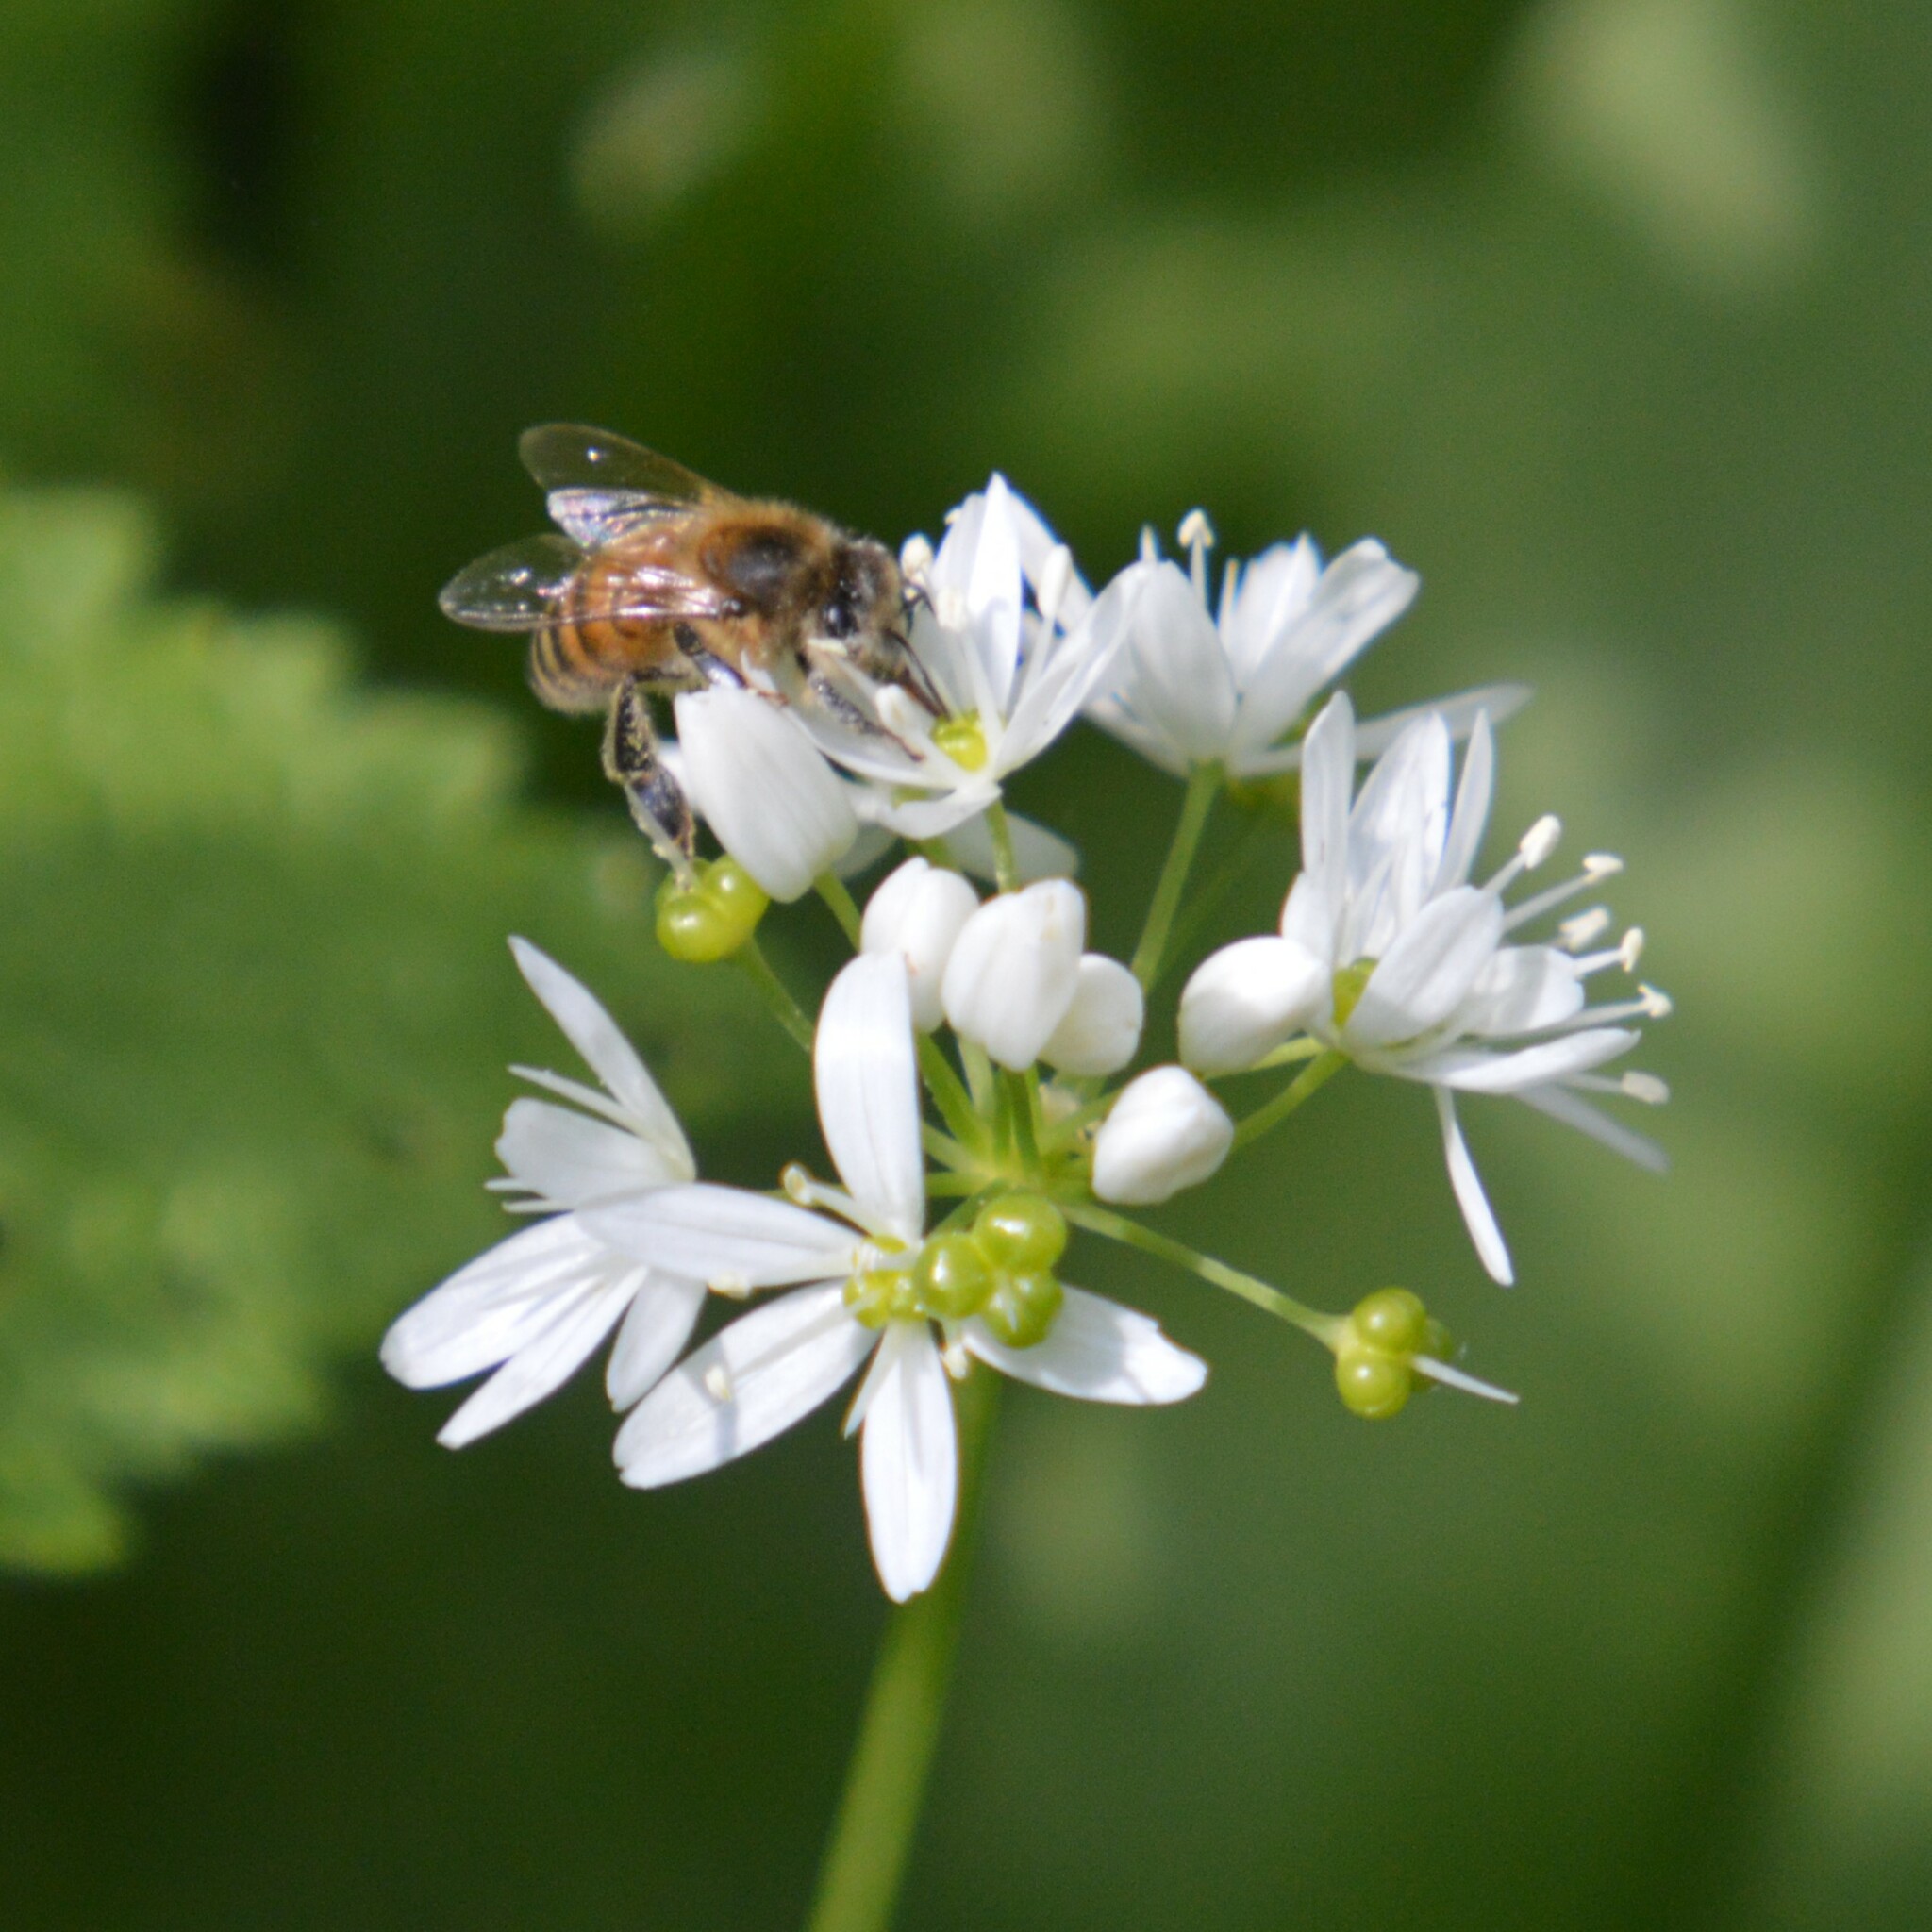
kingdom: Animalia
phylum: Arthropoda
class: Insecta
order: Hymenoptera
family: Apidae
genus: Apis
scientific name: Apis mellifera
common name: Honey bee
